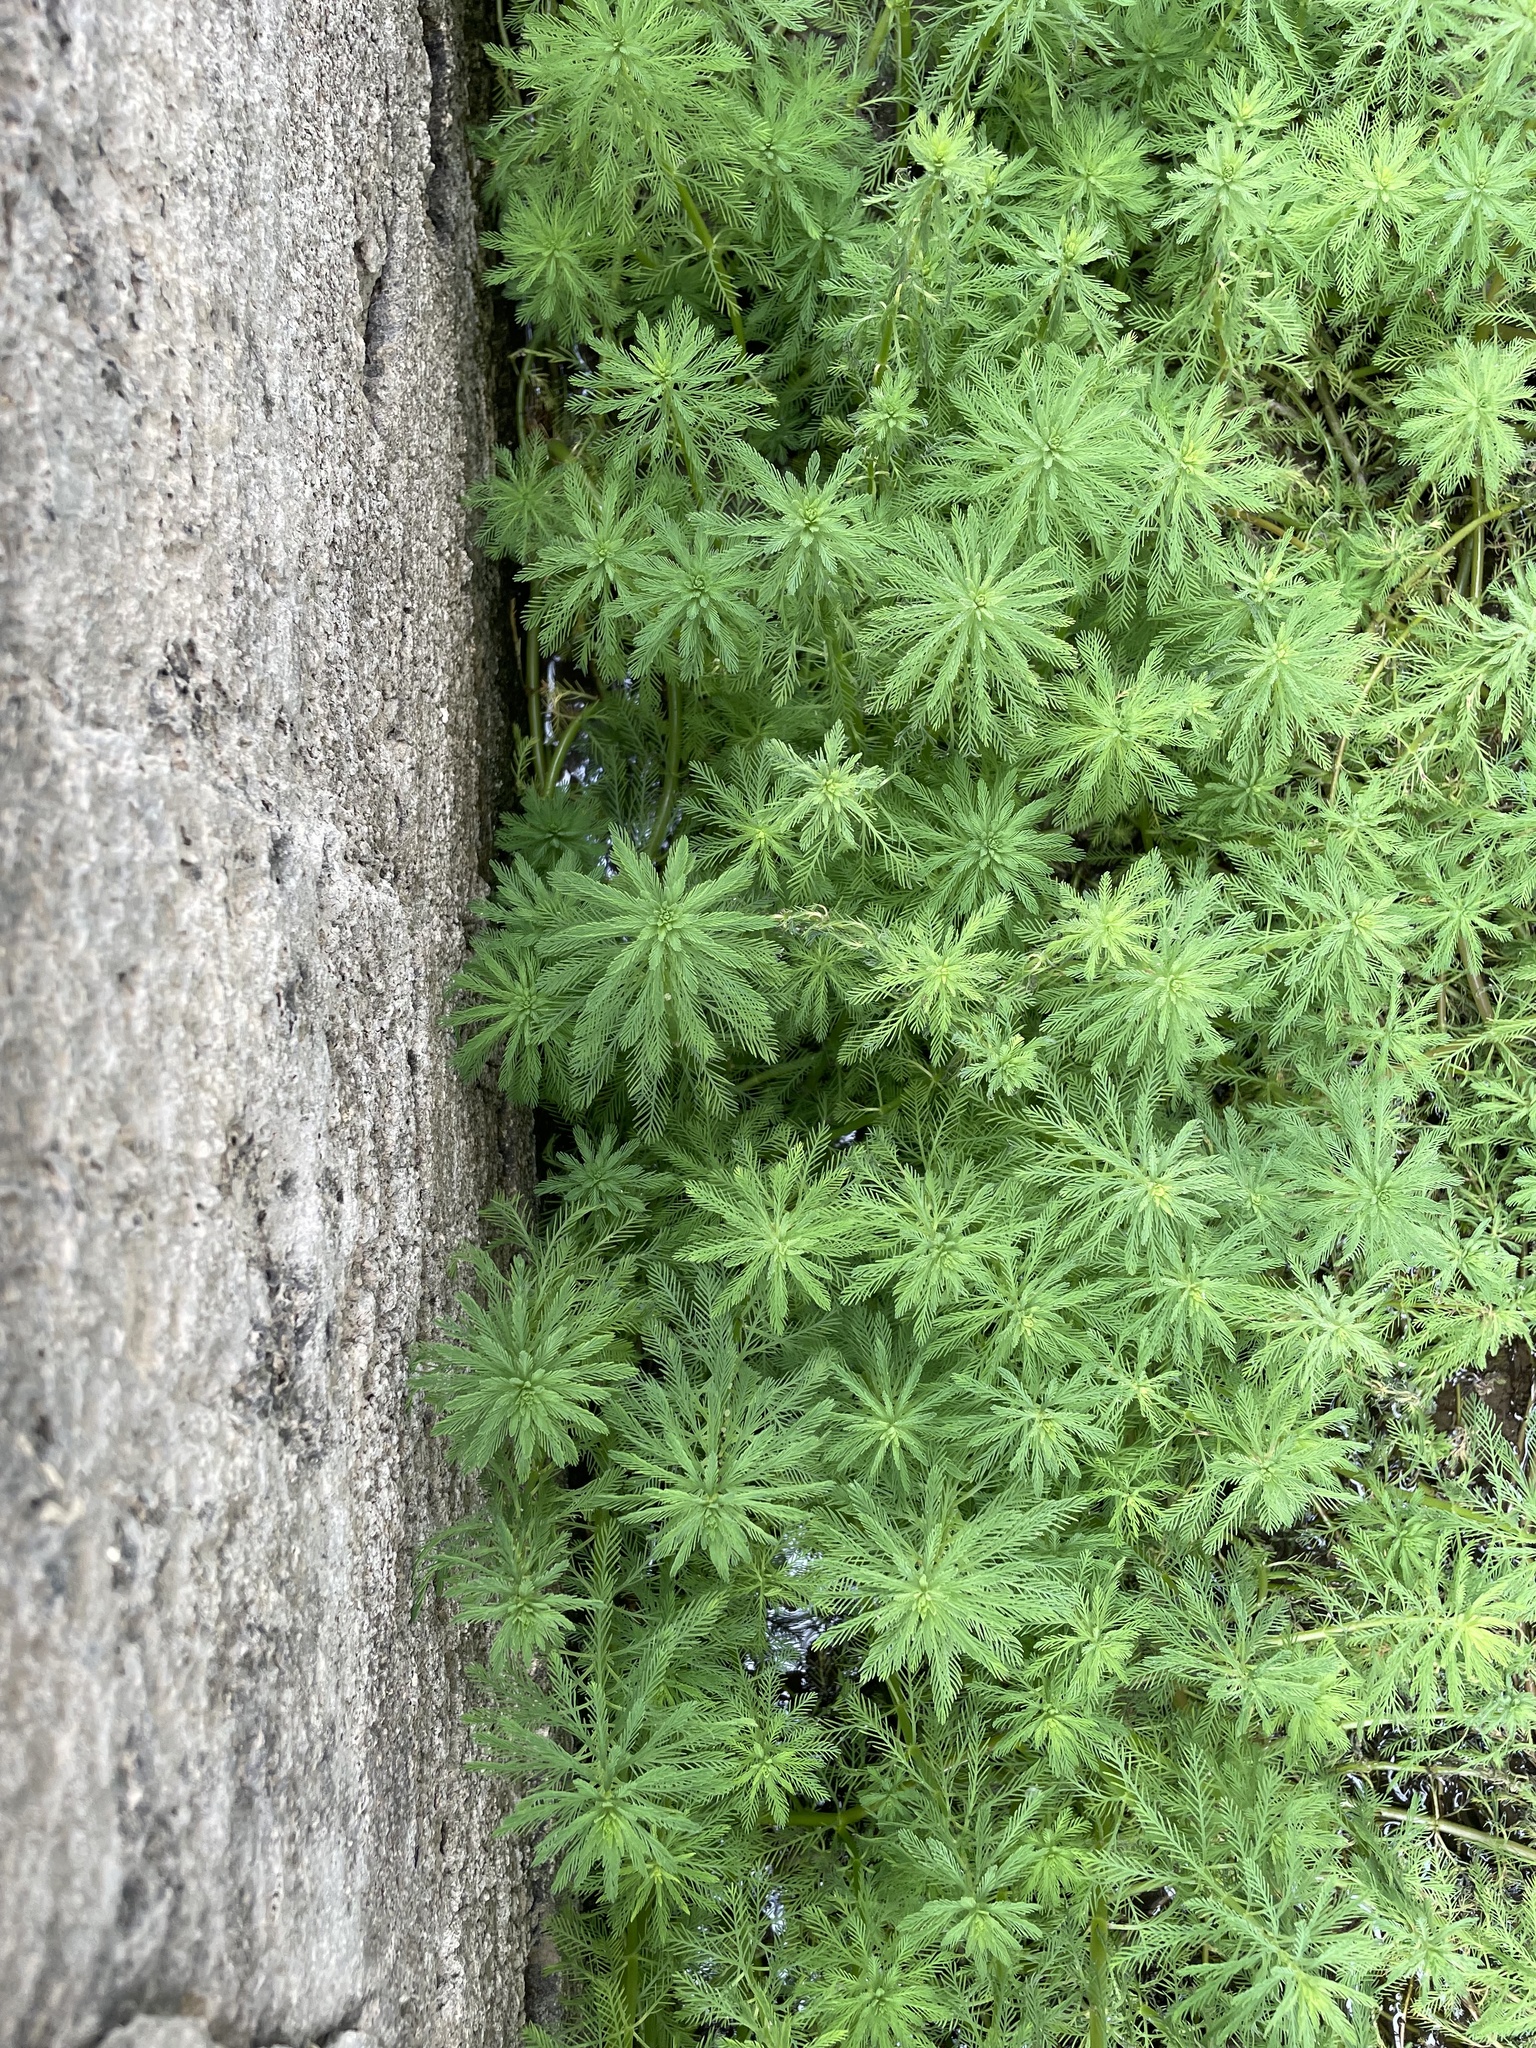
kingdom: Plantae
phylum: Tracheophyta
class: Magnoliopsida
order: Saxifragales
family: Haloragaceae
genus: Myriophyllum
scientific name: Myriophyllum aquaticum
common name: Parrot's feather
